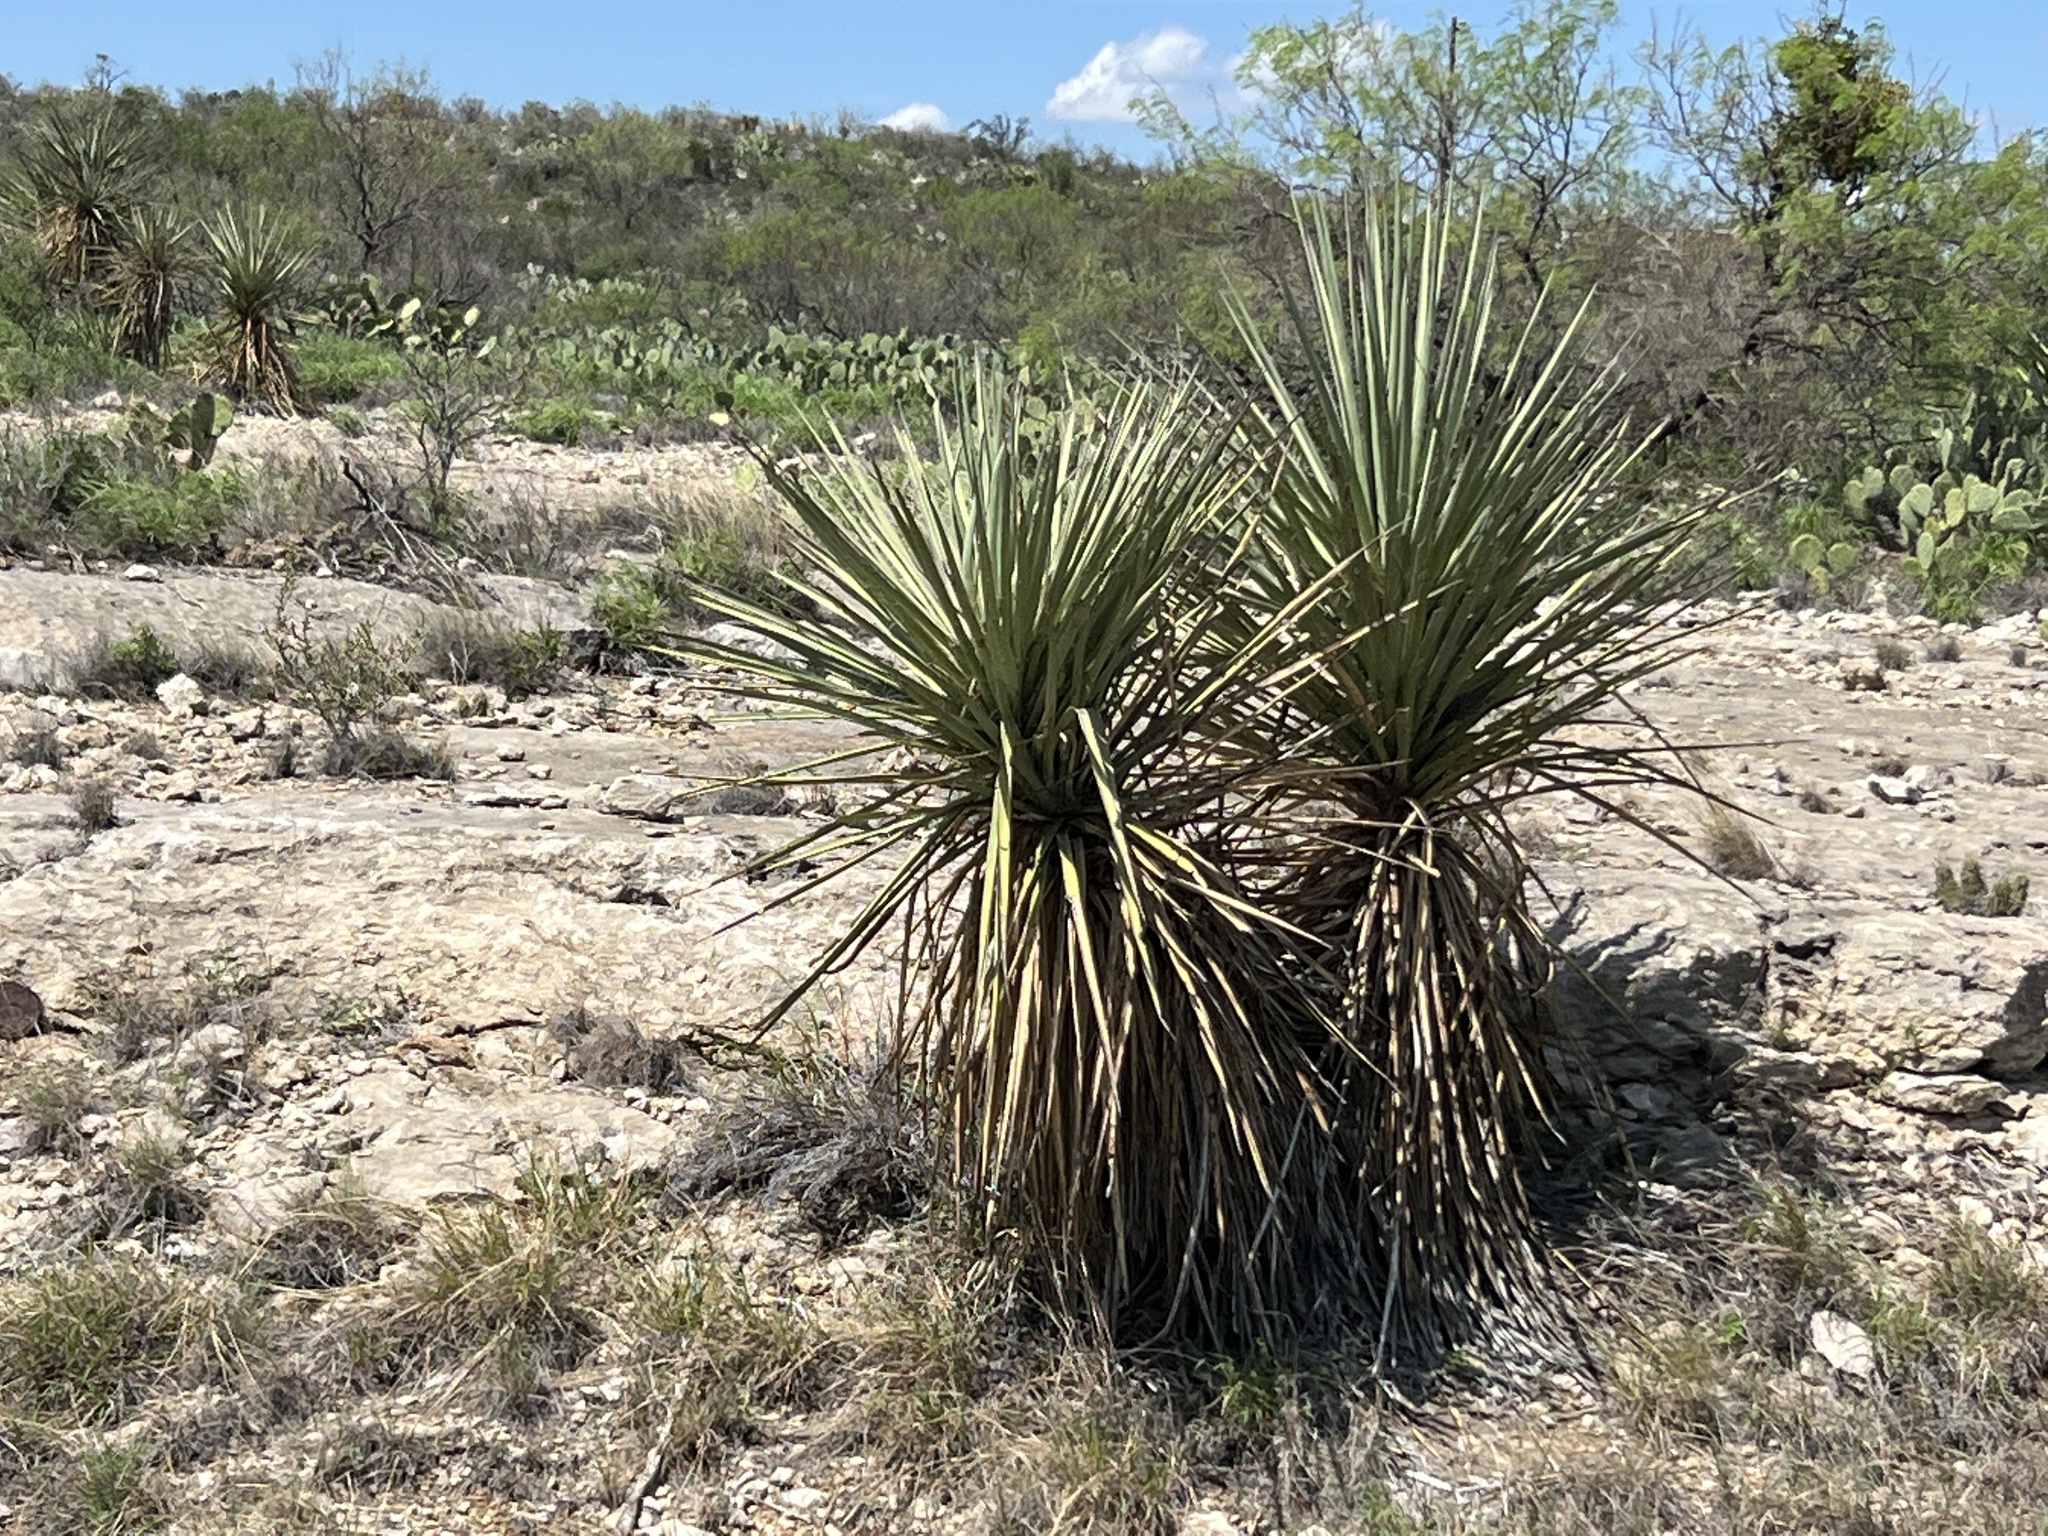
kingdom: Plantae
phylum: Tracheophyta
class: Liliopsida
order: Asparagales
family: Asparagaceae
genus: Yucca
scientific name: Yucca treculiana
